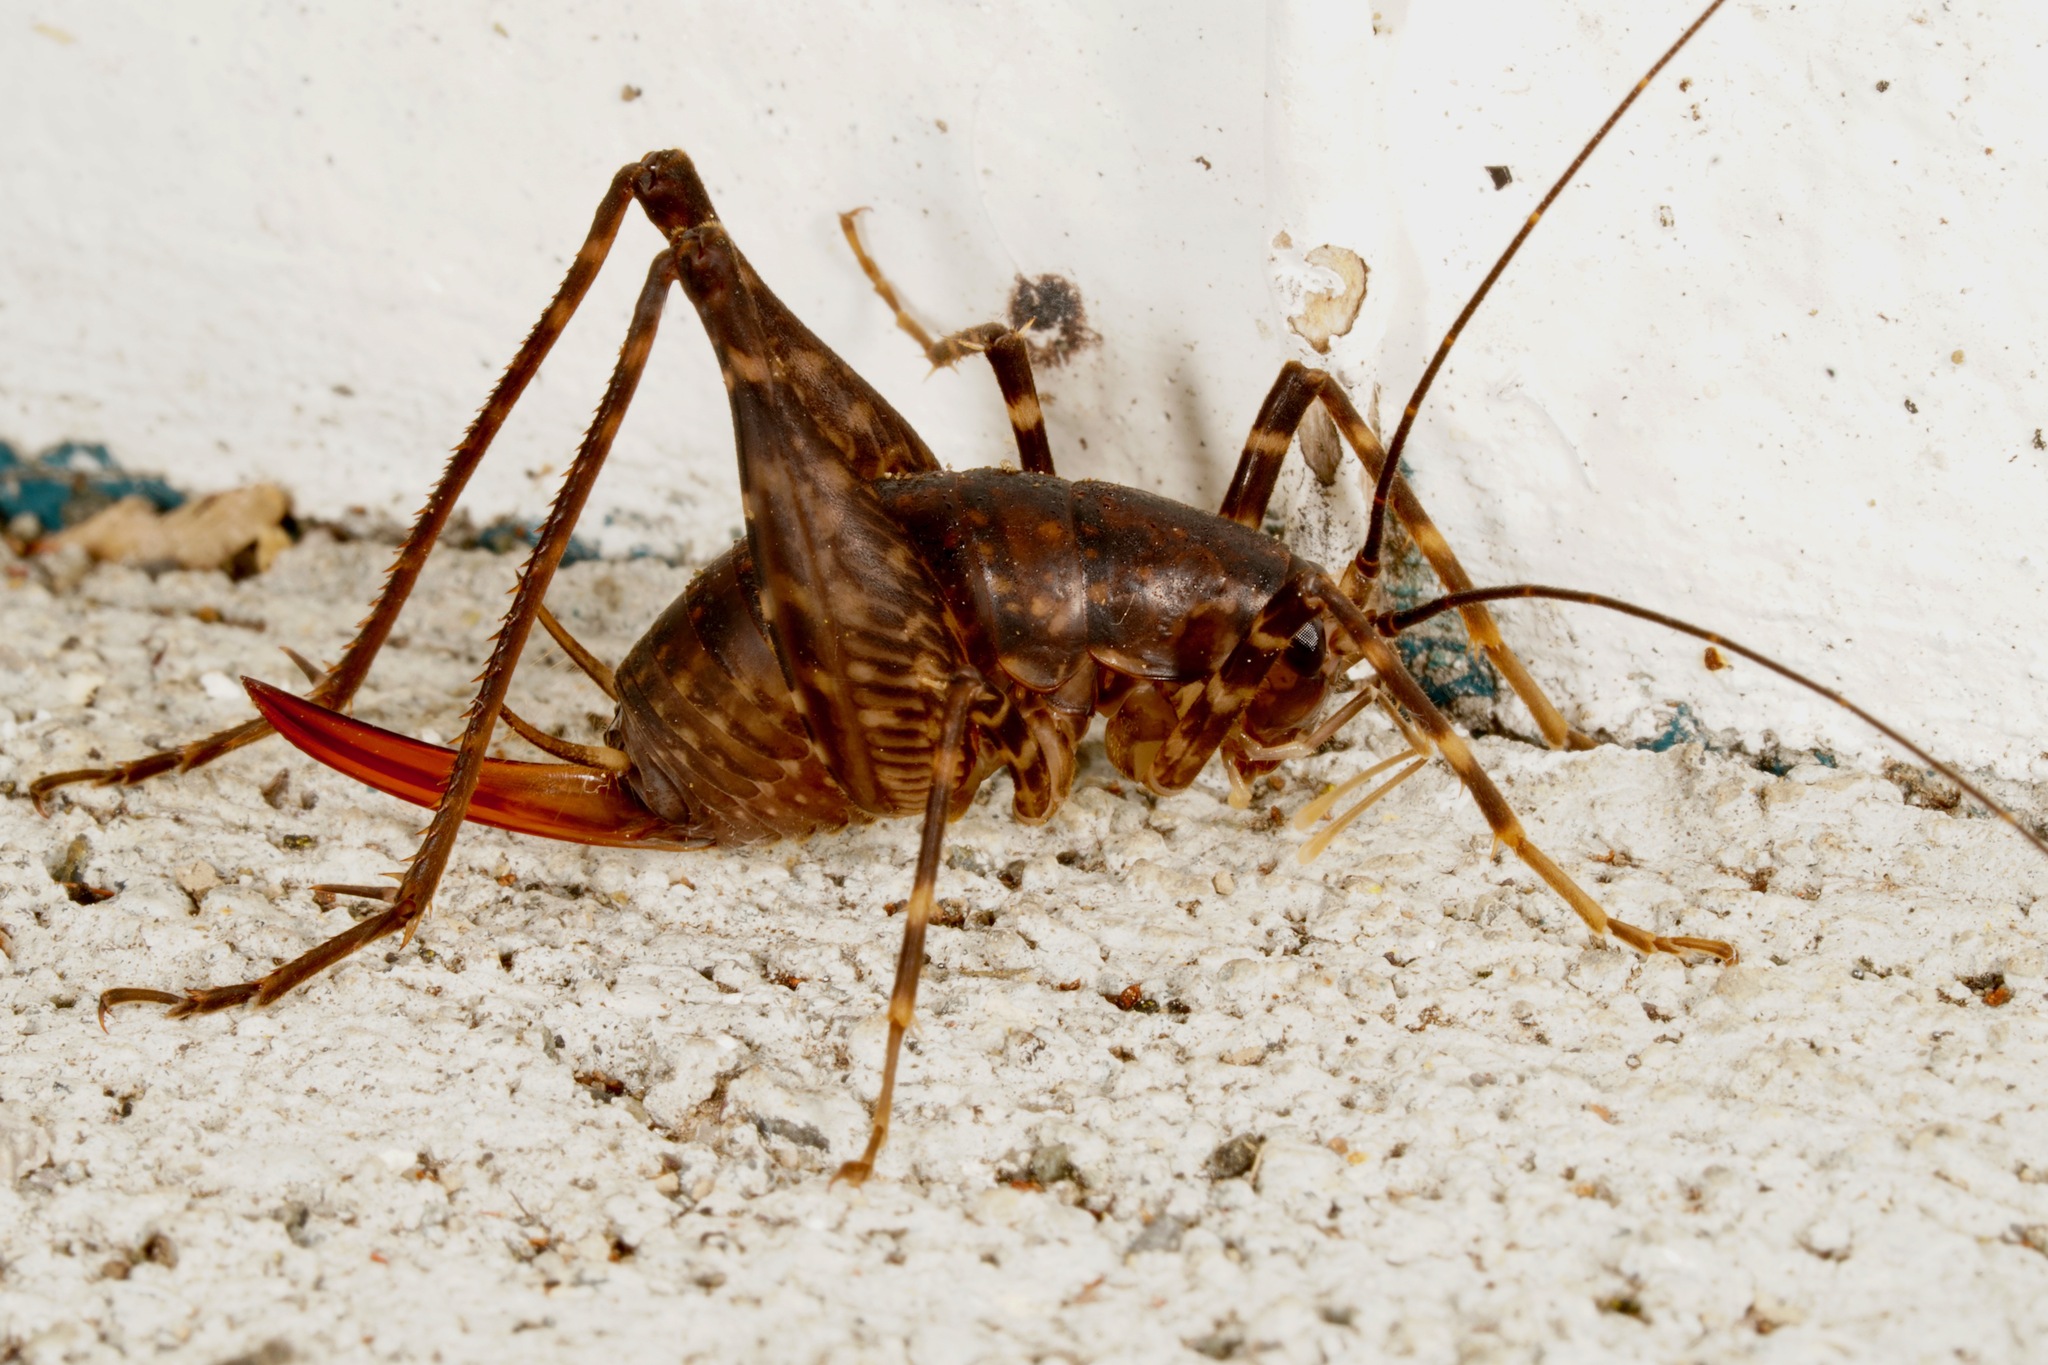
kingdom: Animalia
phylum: Arthropoda
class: Insecta
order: Orthoptera
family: Rhaphidophoridae
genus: Miotopus
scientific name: Miotopus diversus
